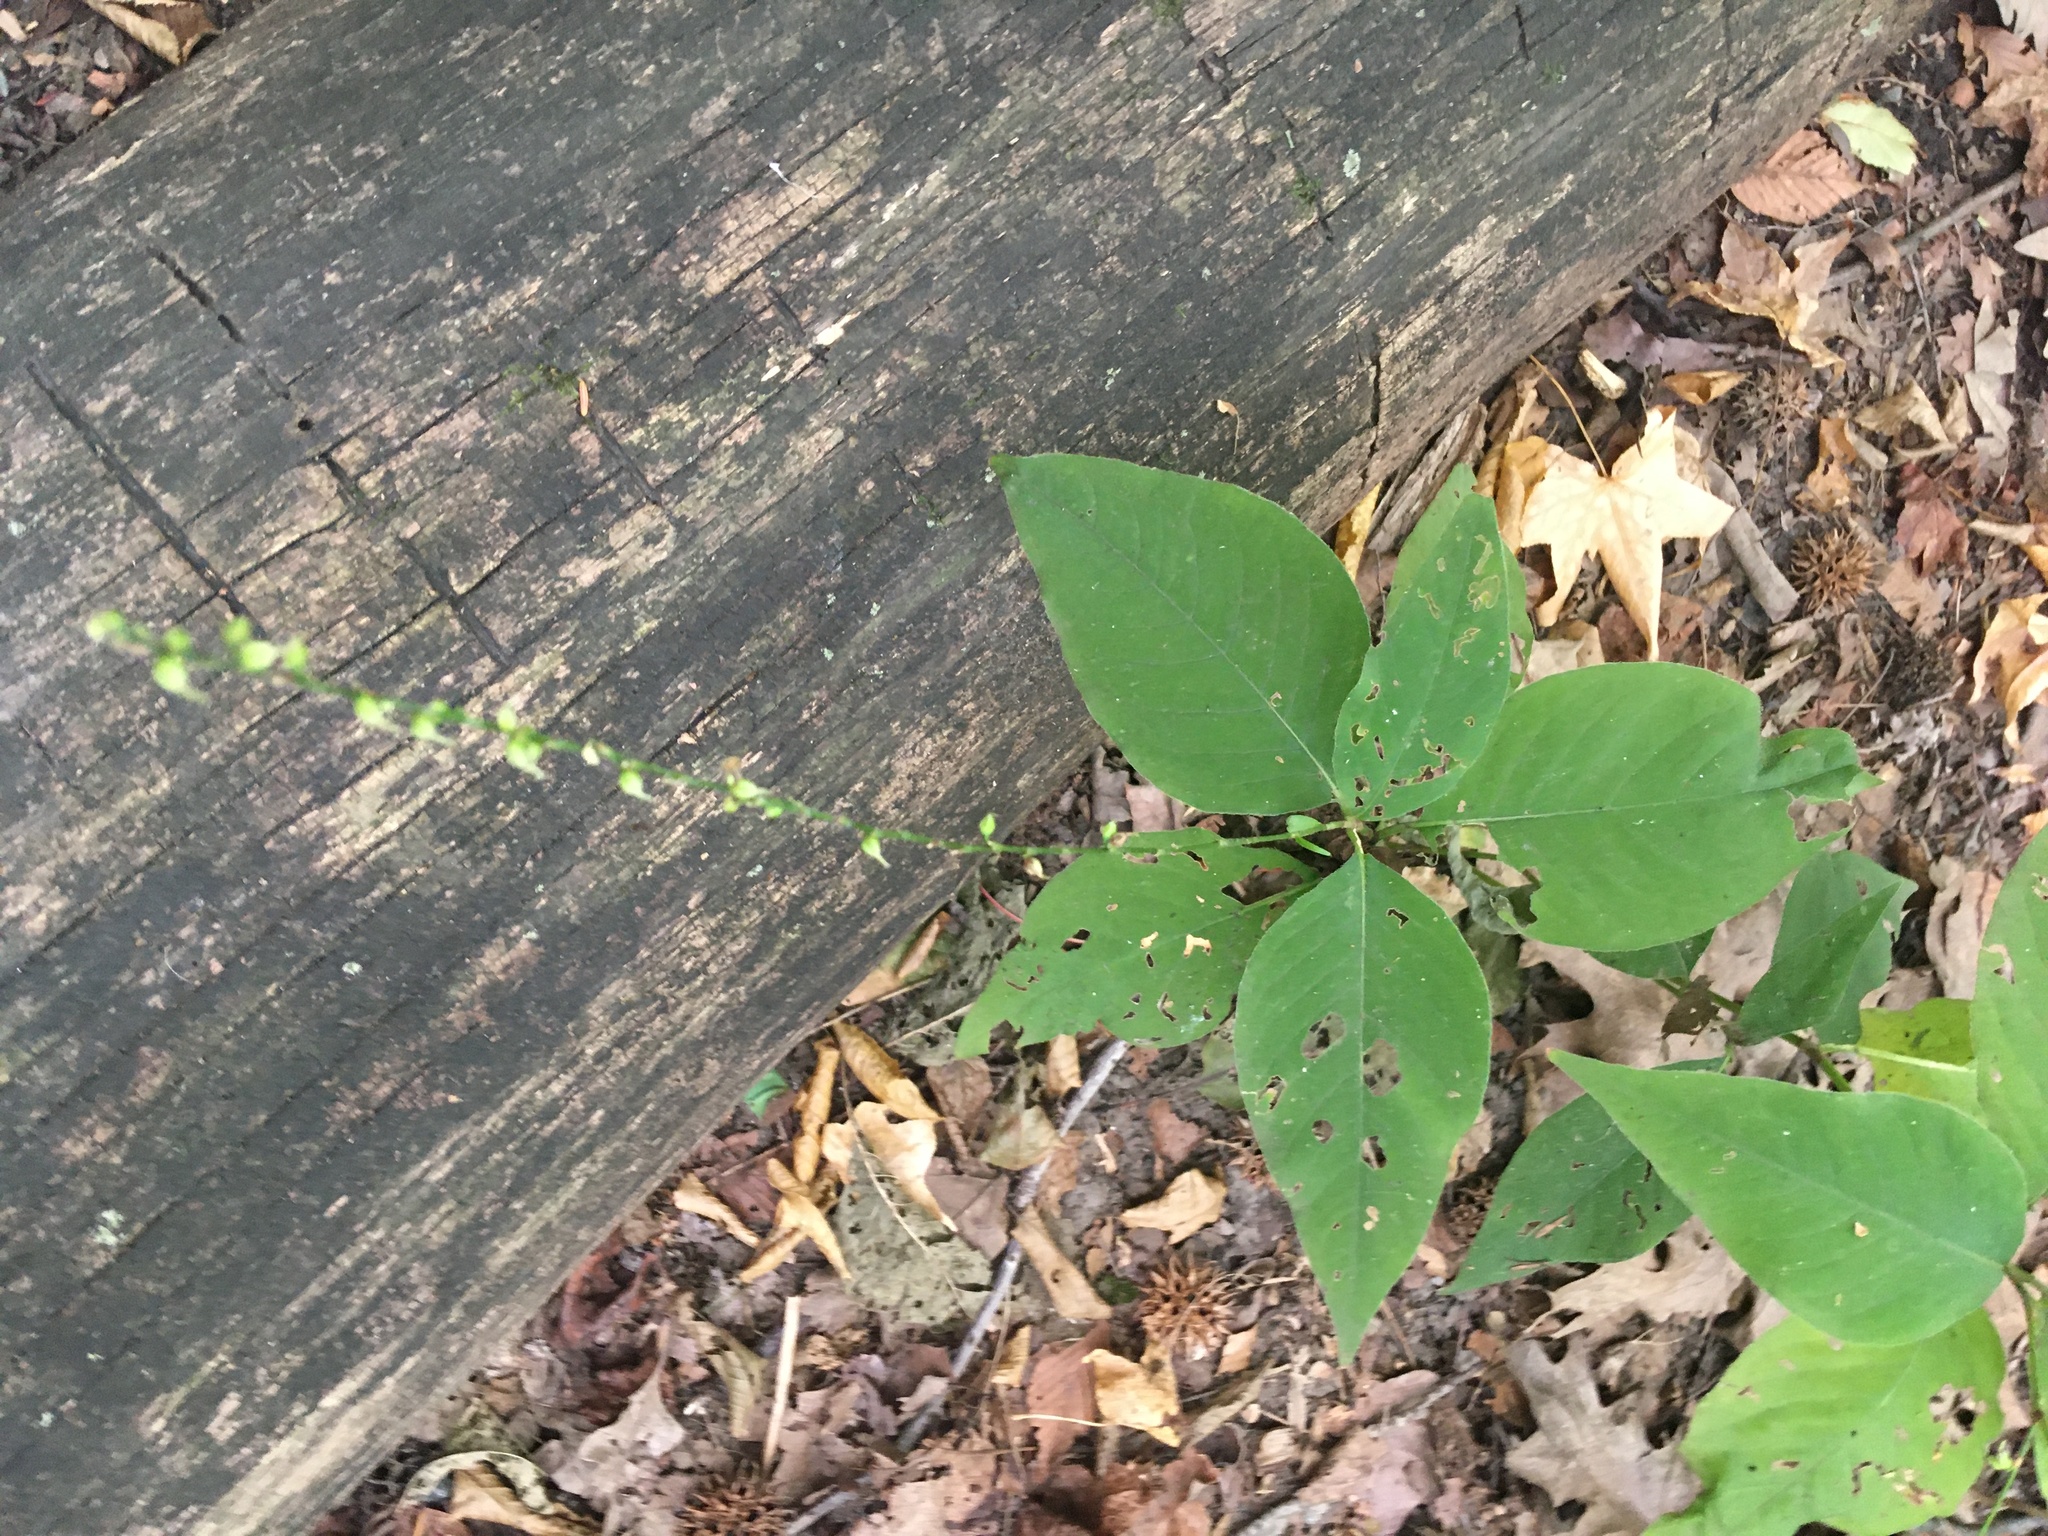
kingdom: Plantae
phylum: Tracheophyta
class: Magnoliopsida
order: Caryophyllales
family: Polygonaceae
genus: Persicaria
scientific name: Persicaria virginiana
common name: Jumpseed
